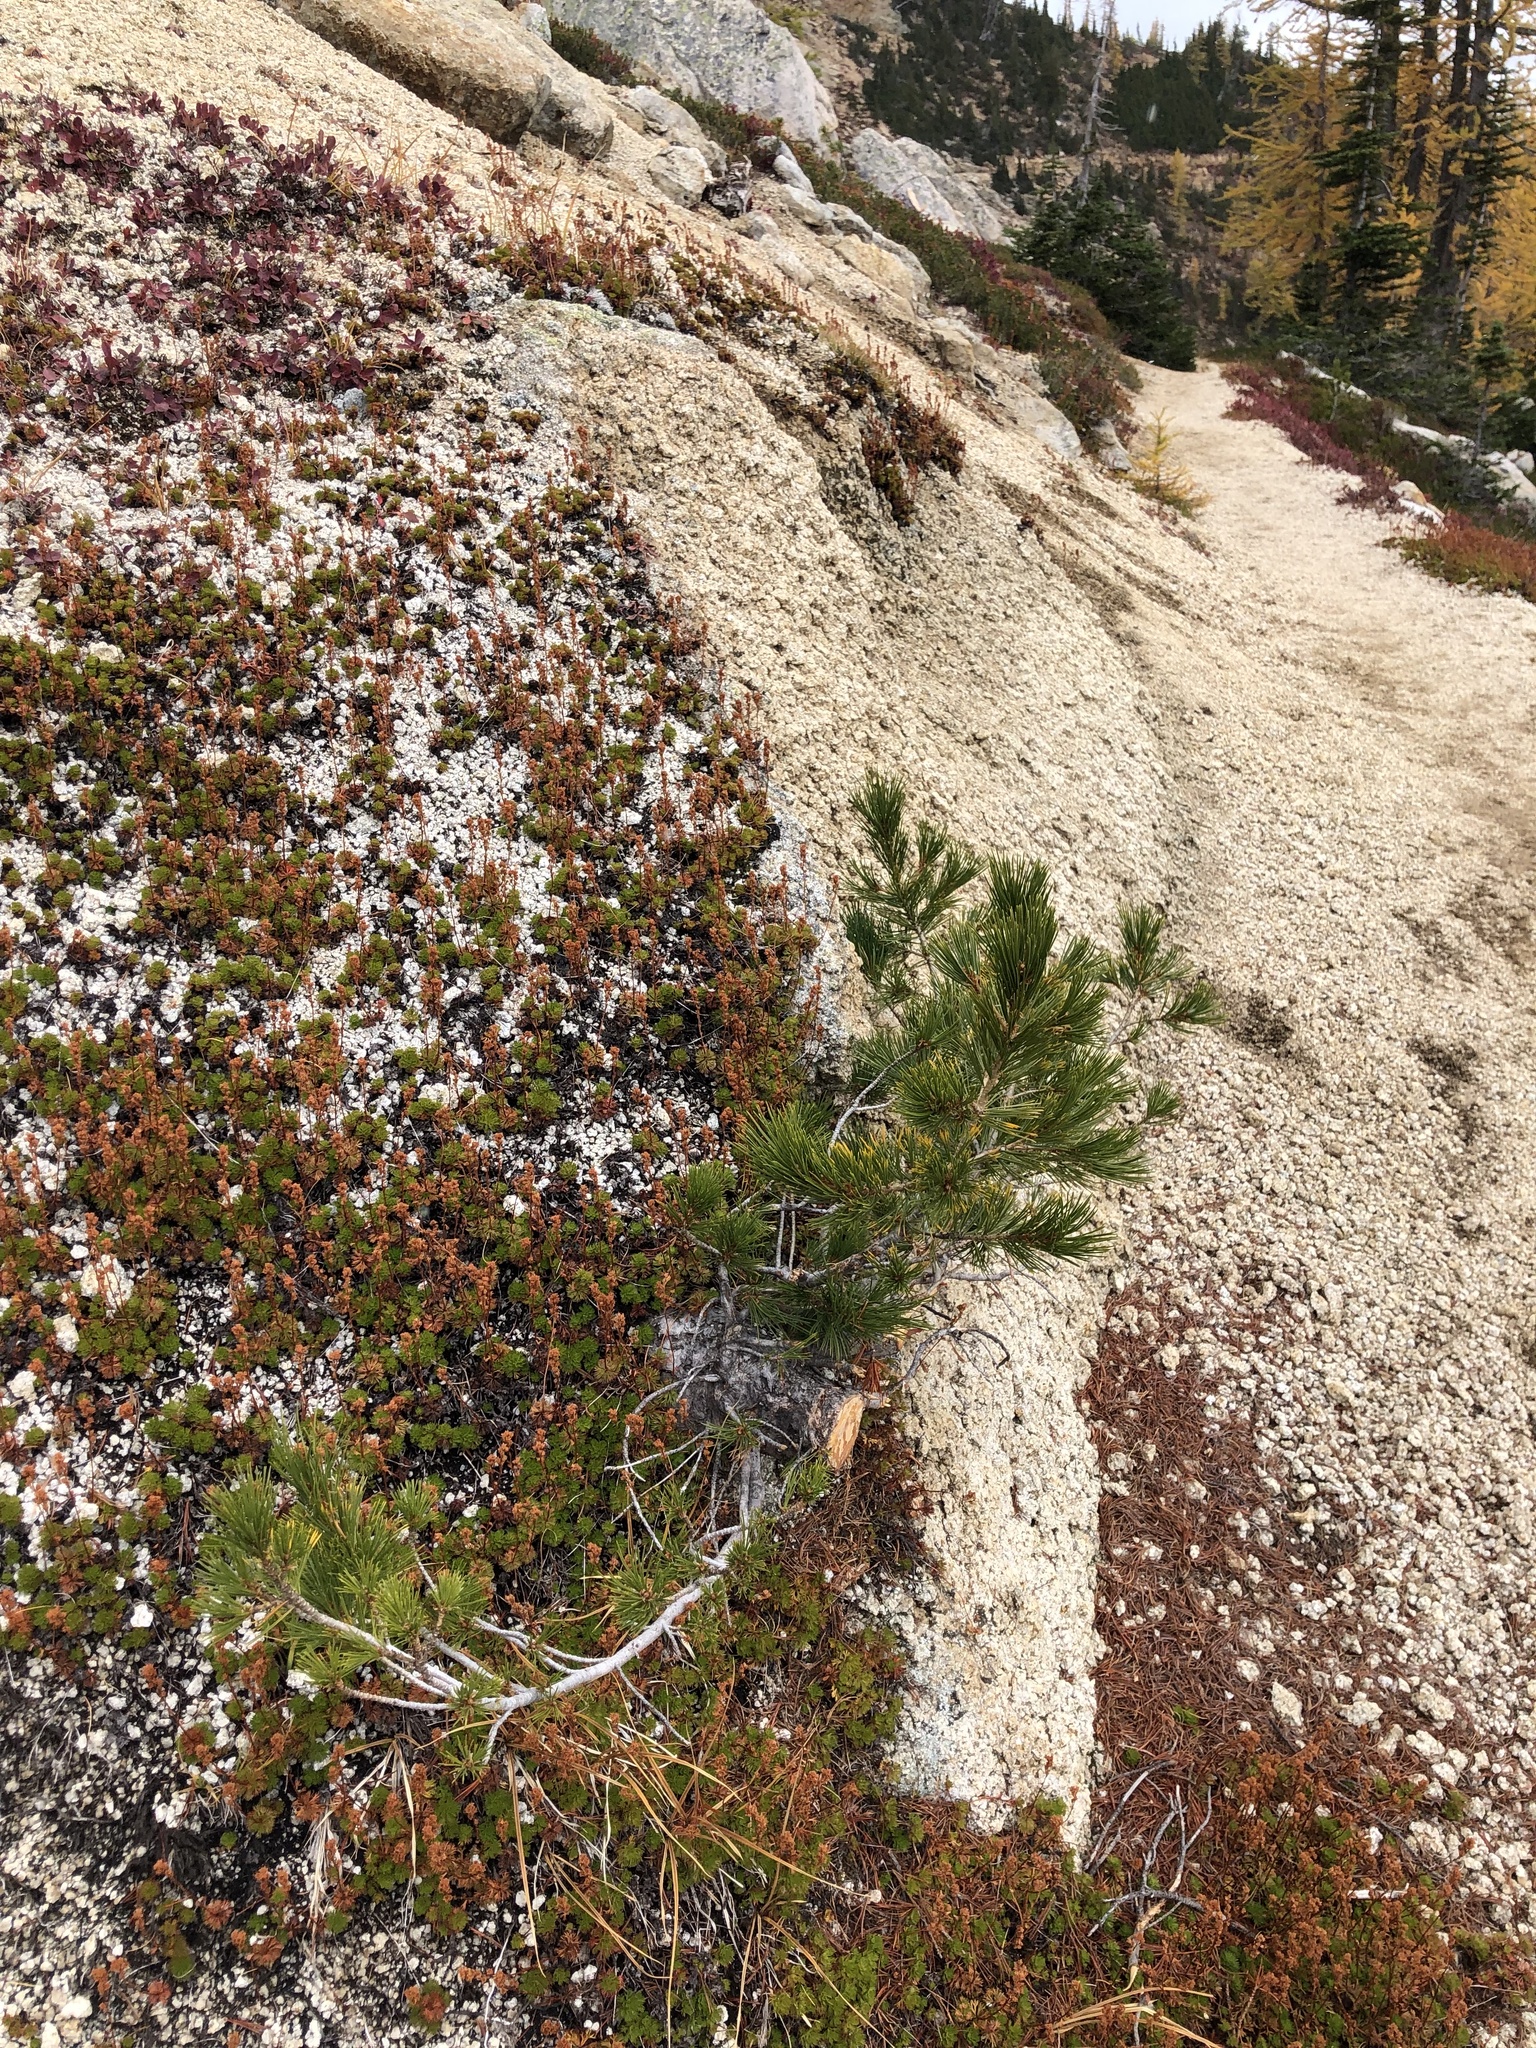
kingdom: Plantae
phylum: Tracheophyta
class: Pinopsida
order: Pinales
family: Pinaceae
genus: Pinus
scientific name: Pinus albicaulis
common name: Whitebark pine
